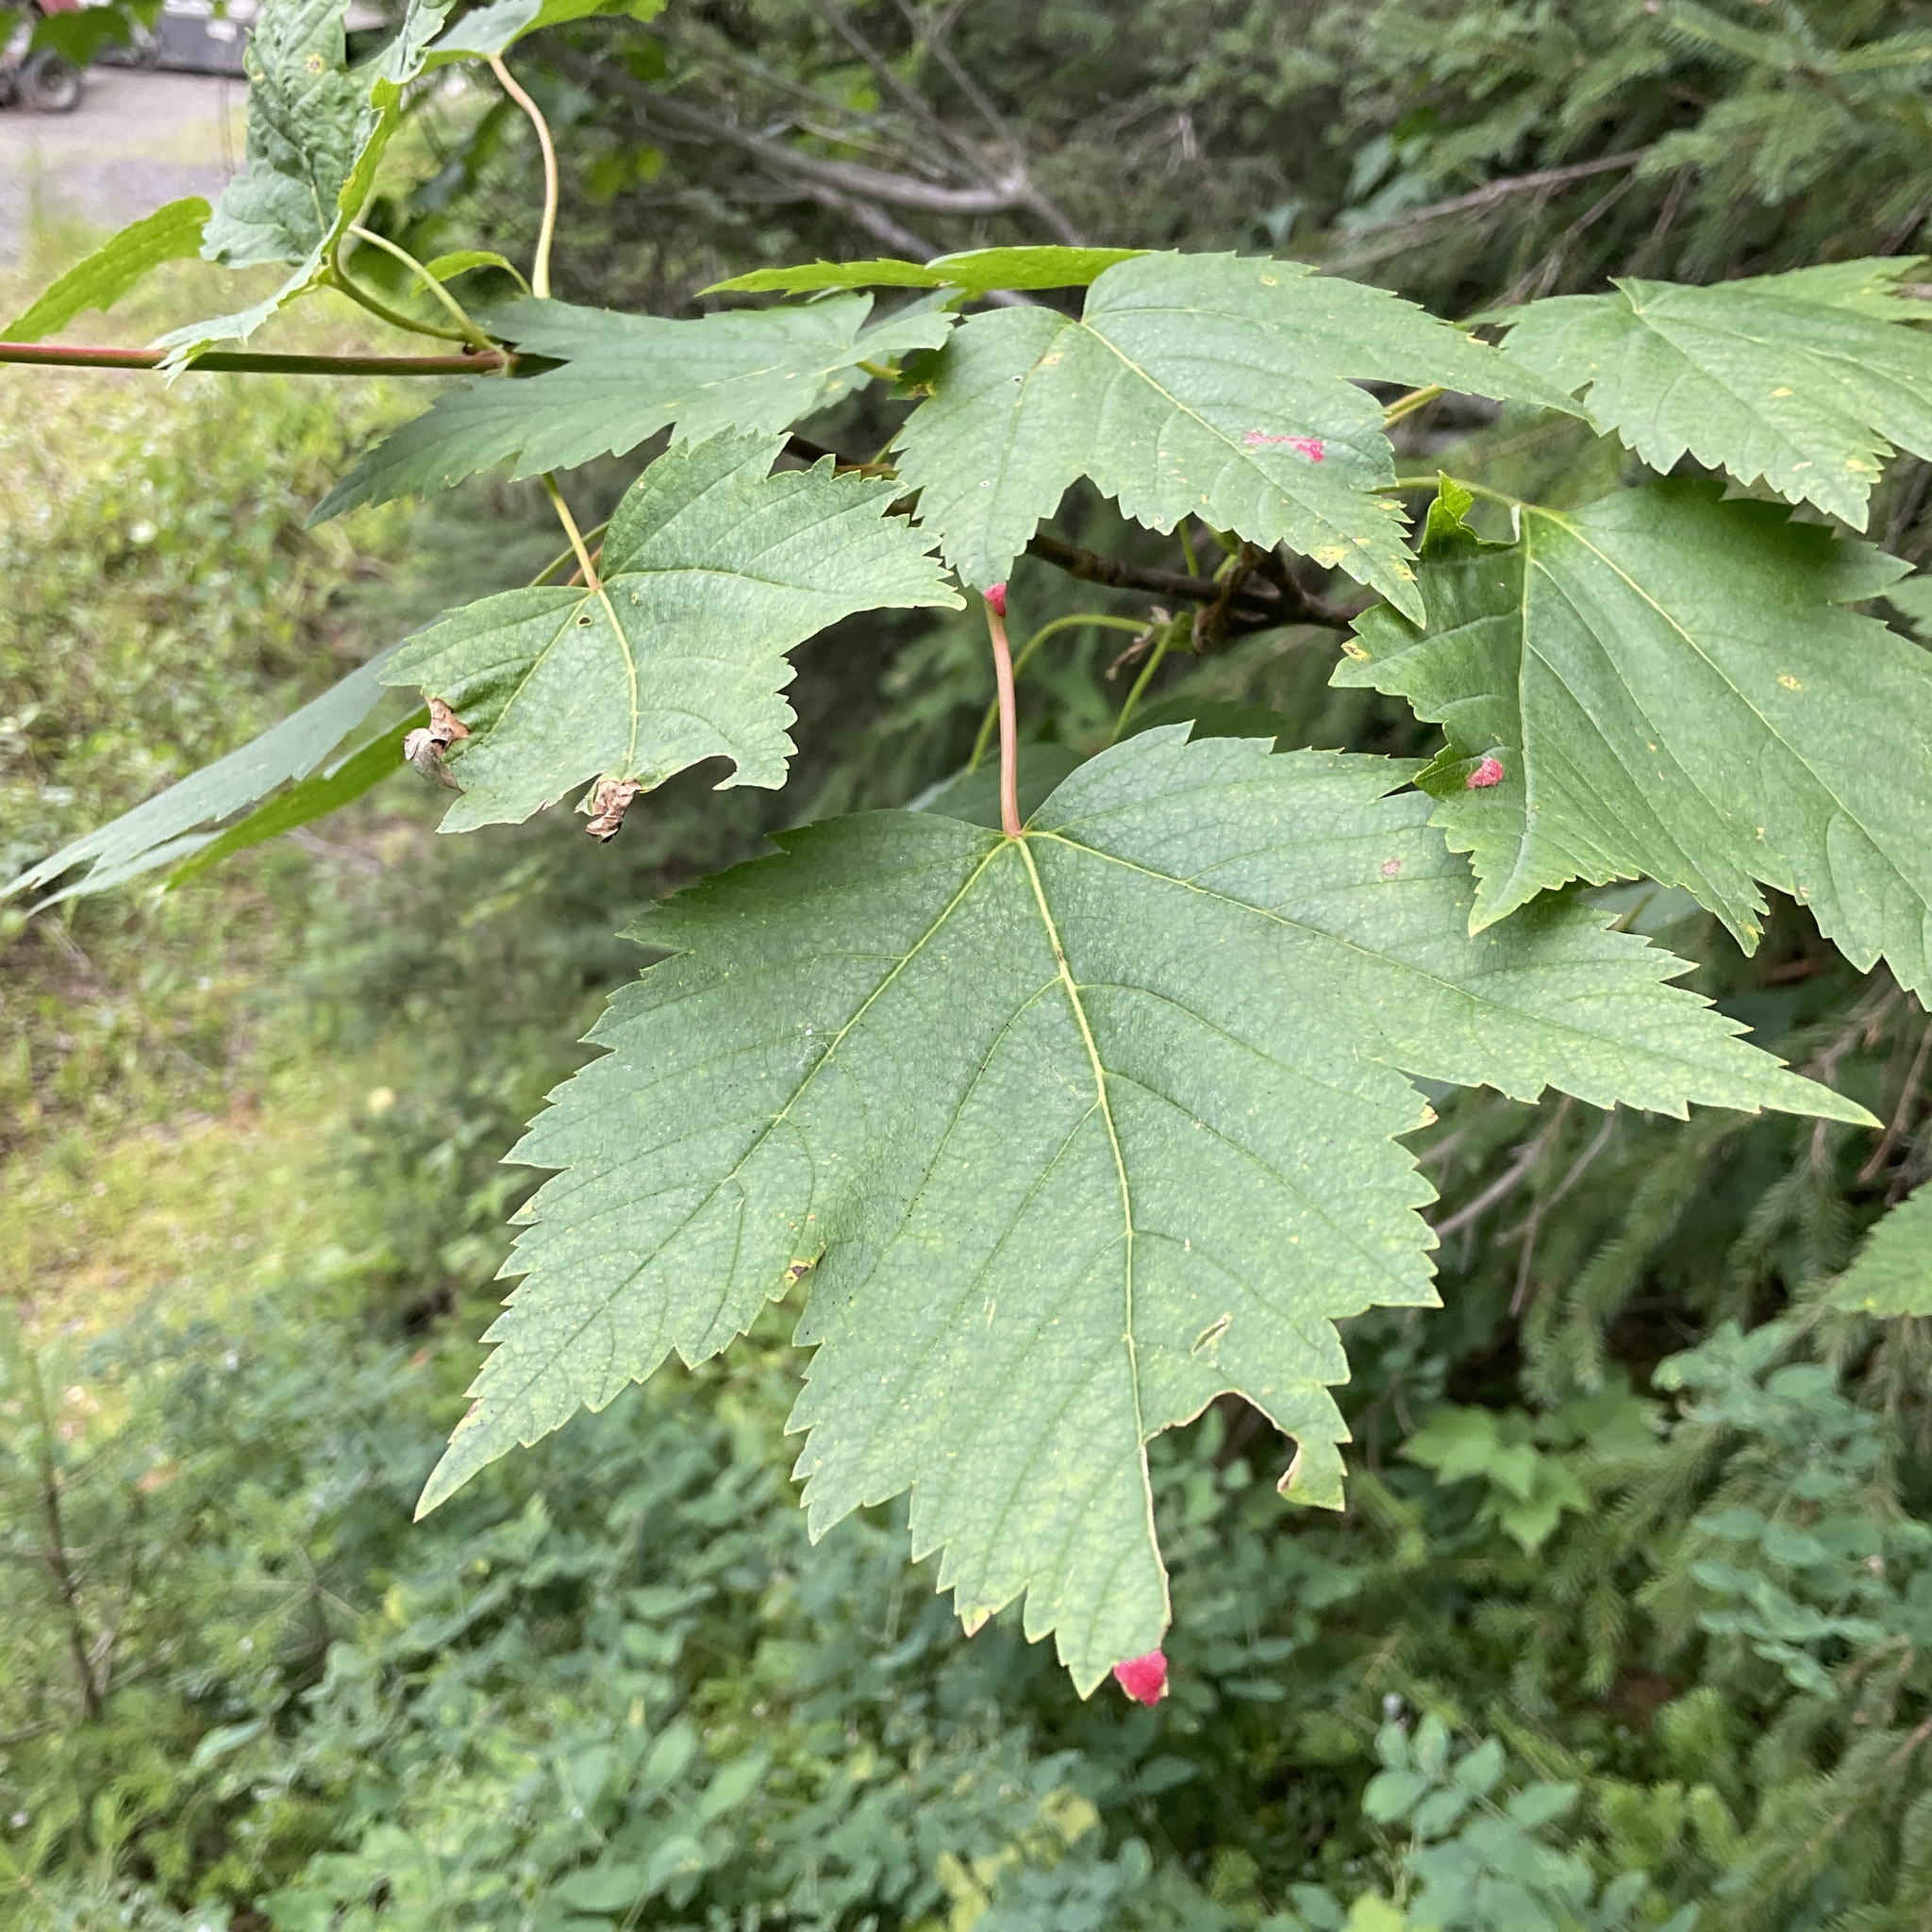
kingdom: Plantae
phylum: Tracheophyta
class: Magnoliopsida
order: Sapindales
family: Sapindaceae
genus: Acer
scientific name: Acer glabrum
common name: Rocky mountain maple
